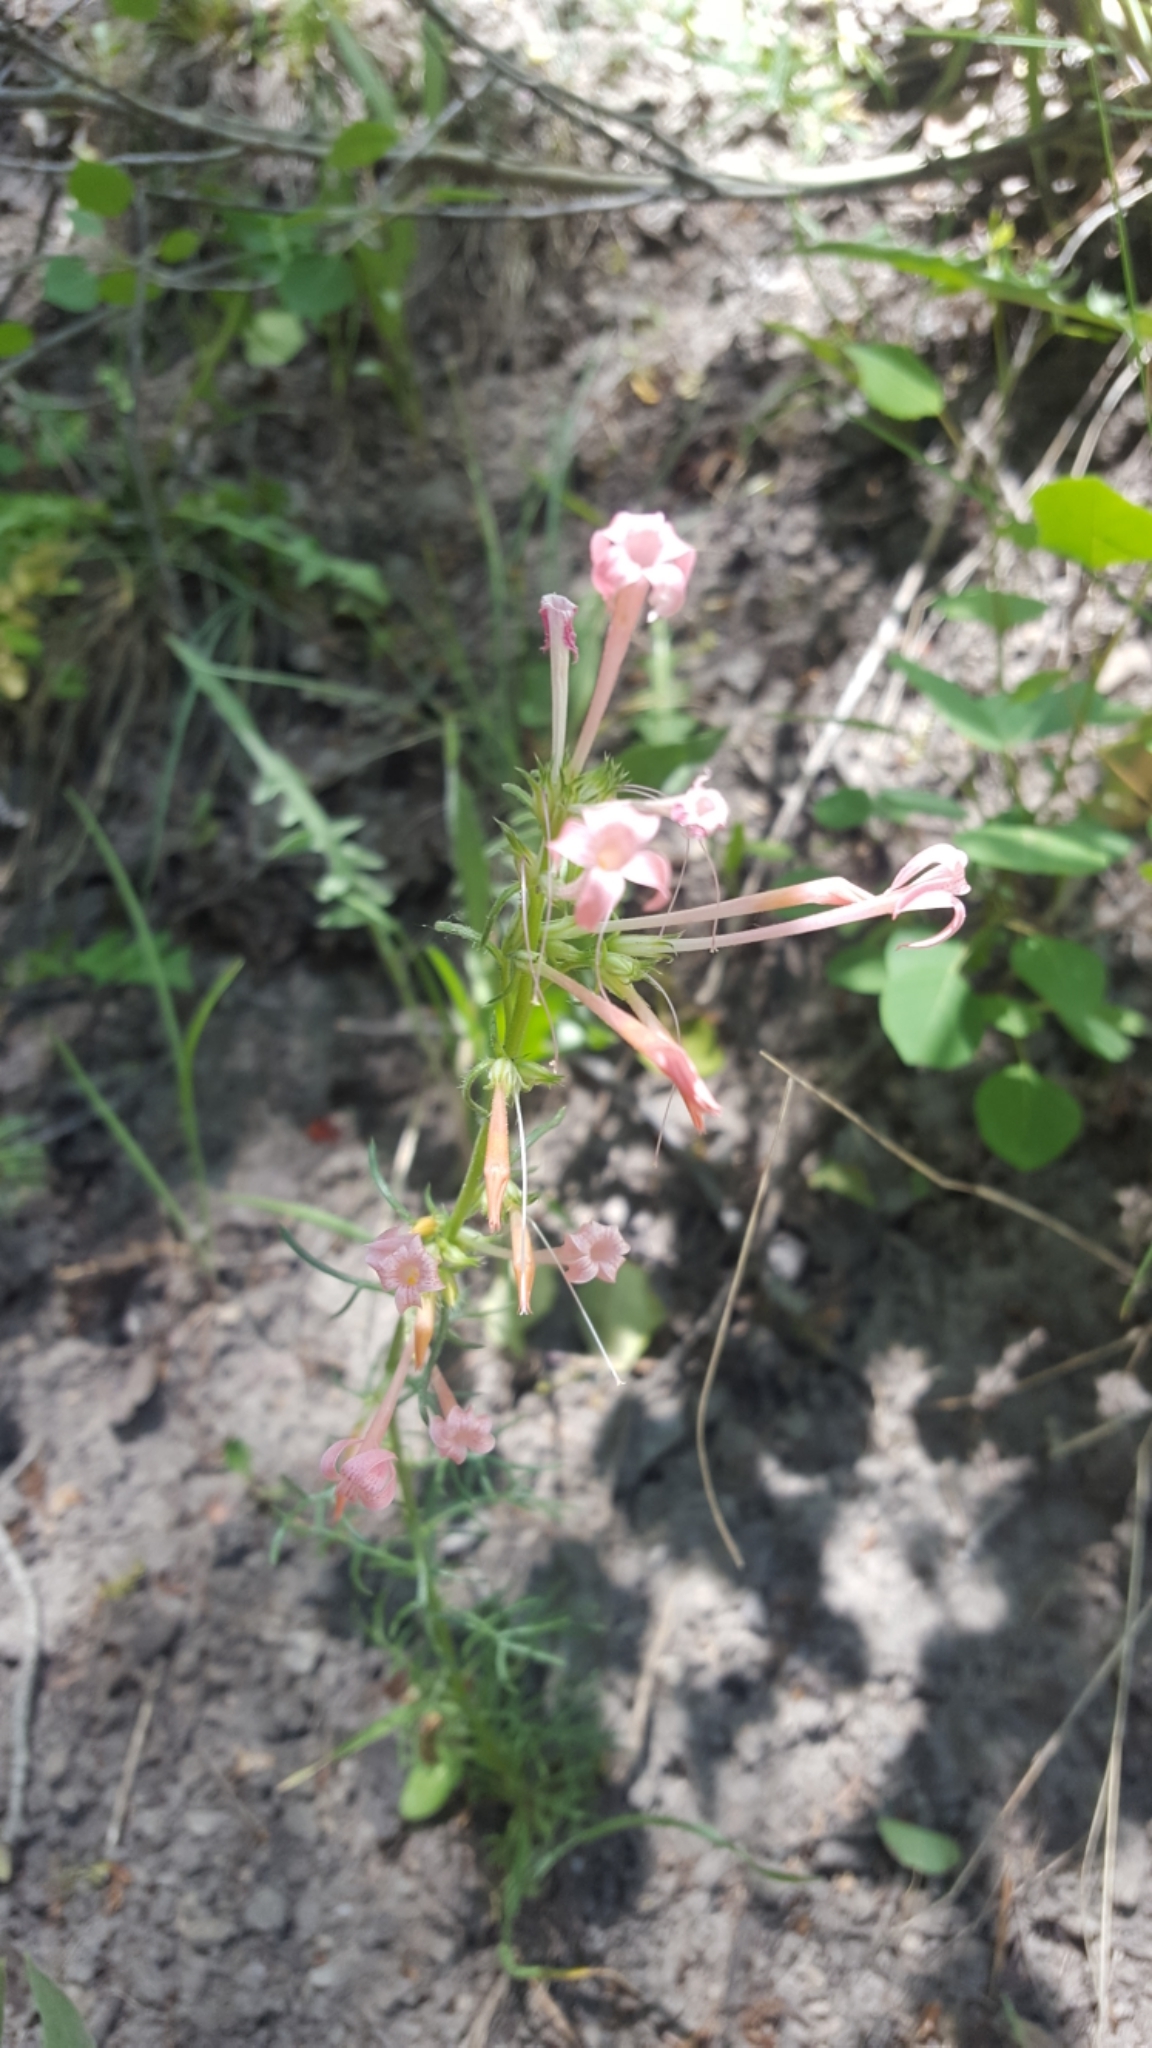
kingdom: Plantae
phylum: Tracheophyta
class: Magnoliopsida
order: Ericales
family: Polemoniaceae
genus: Ipomopsis
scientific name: Ipomopsis tenuituba
